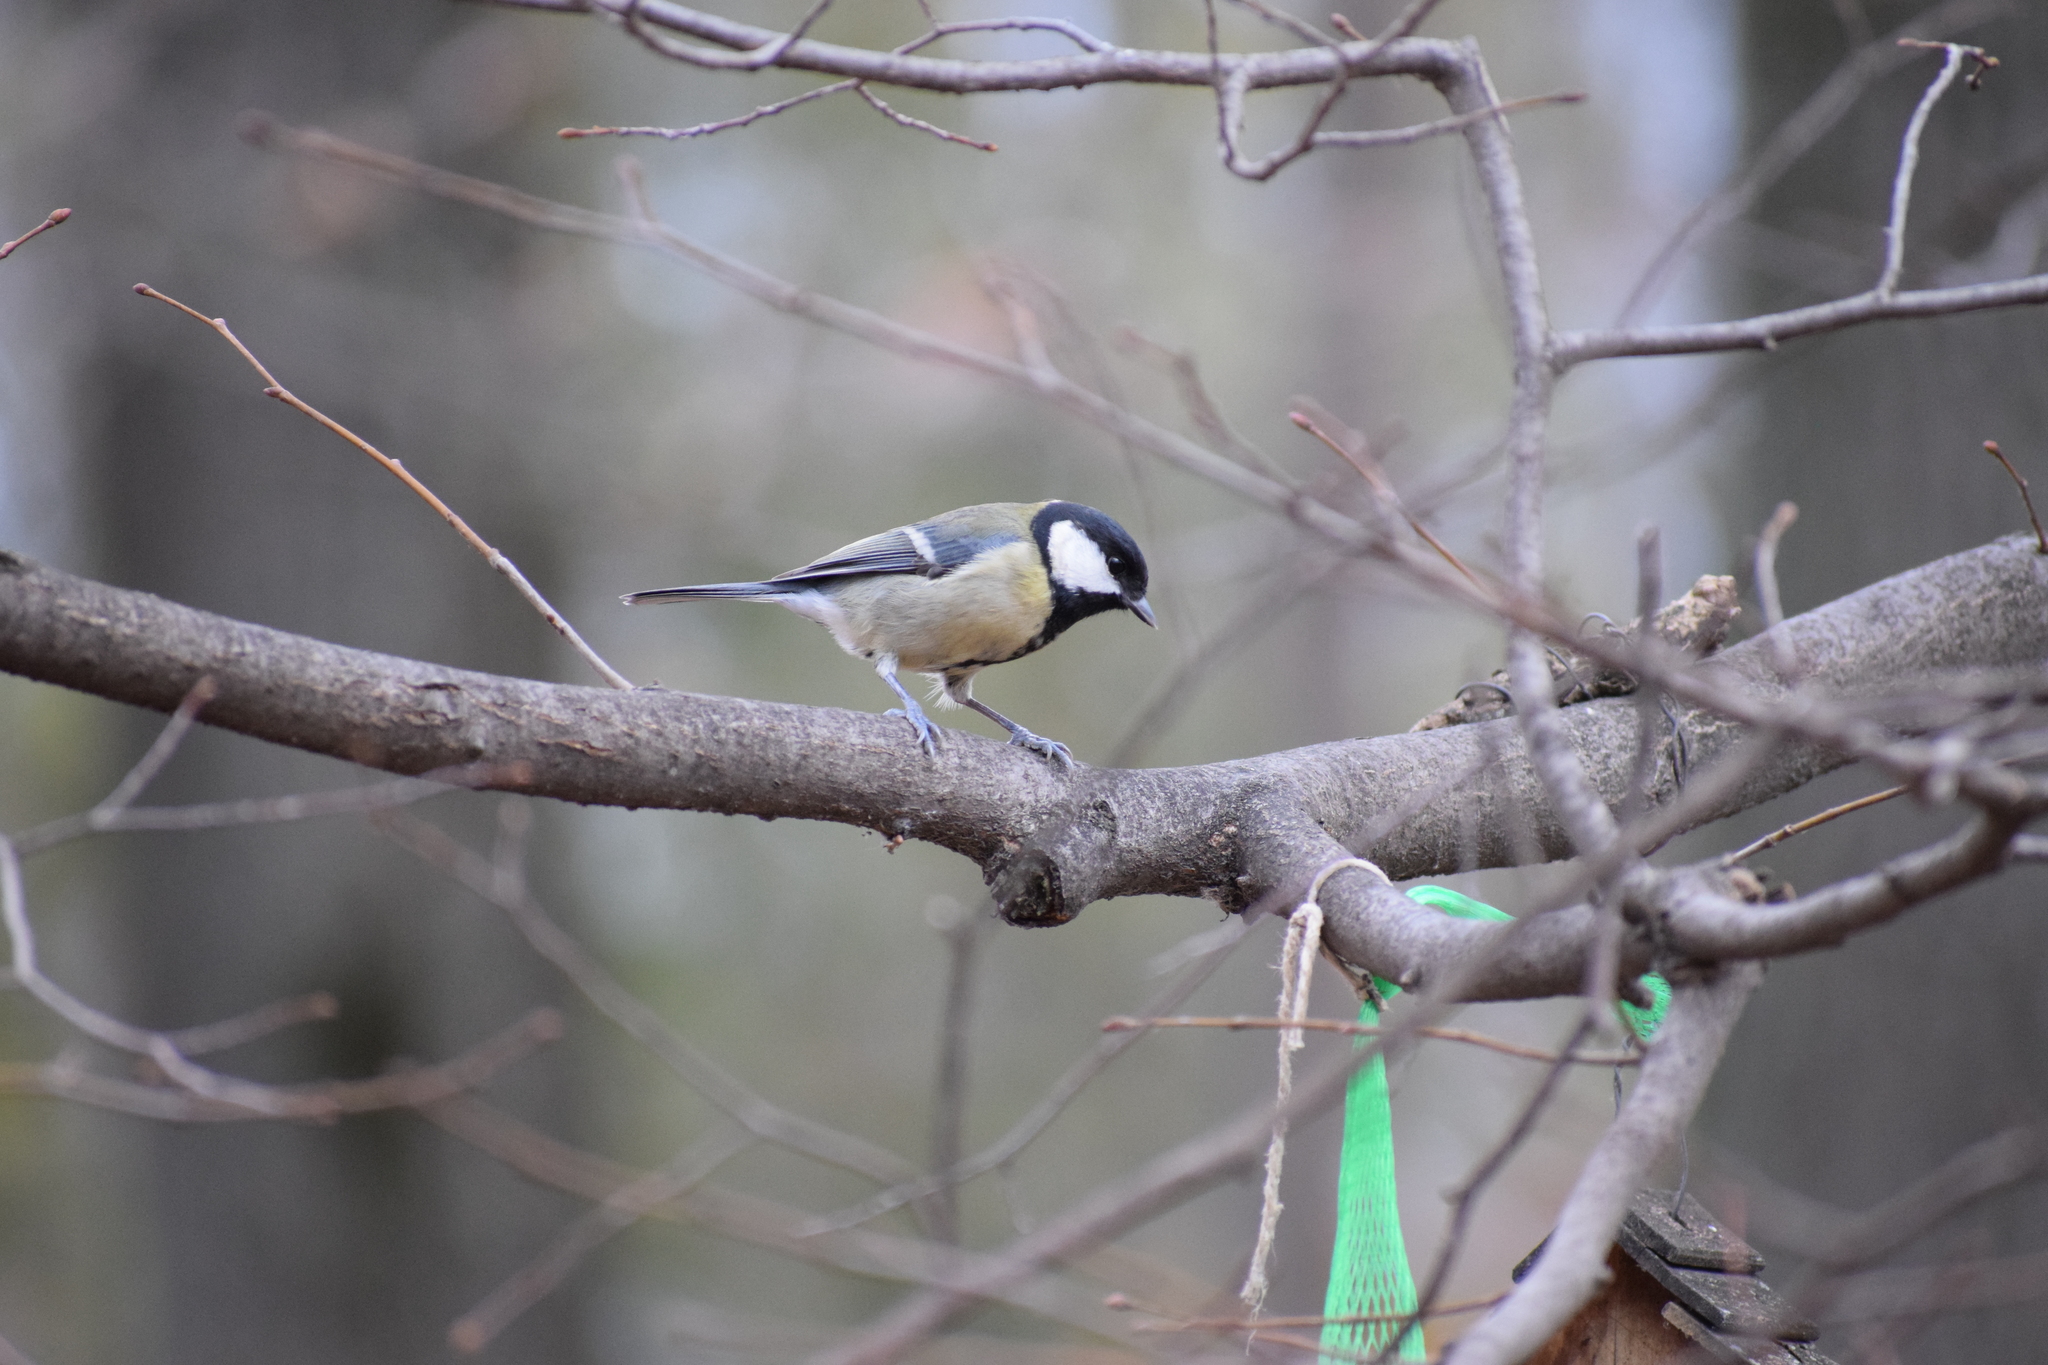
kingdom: Animalia
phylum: Chordata
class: Aves
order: Passeriformes
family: Paridae
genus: Parus
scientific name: Parus major
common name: Great tit
